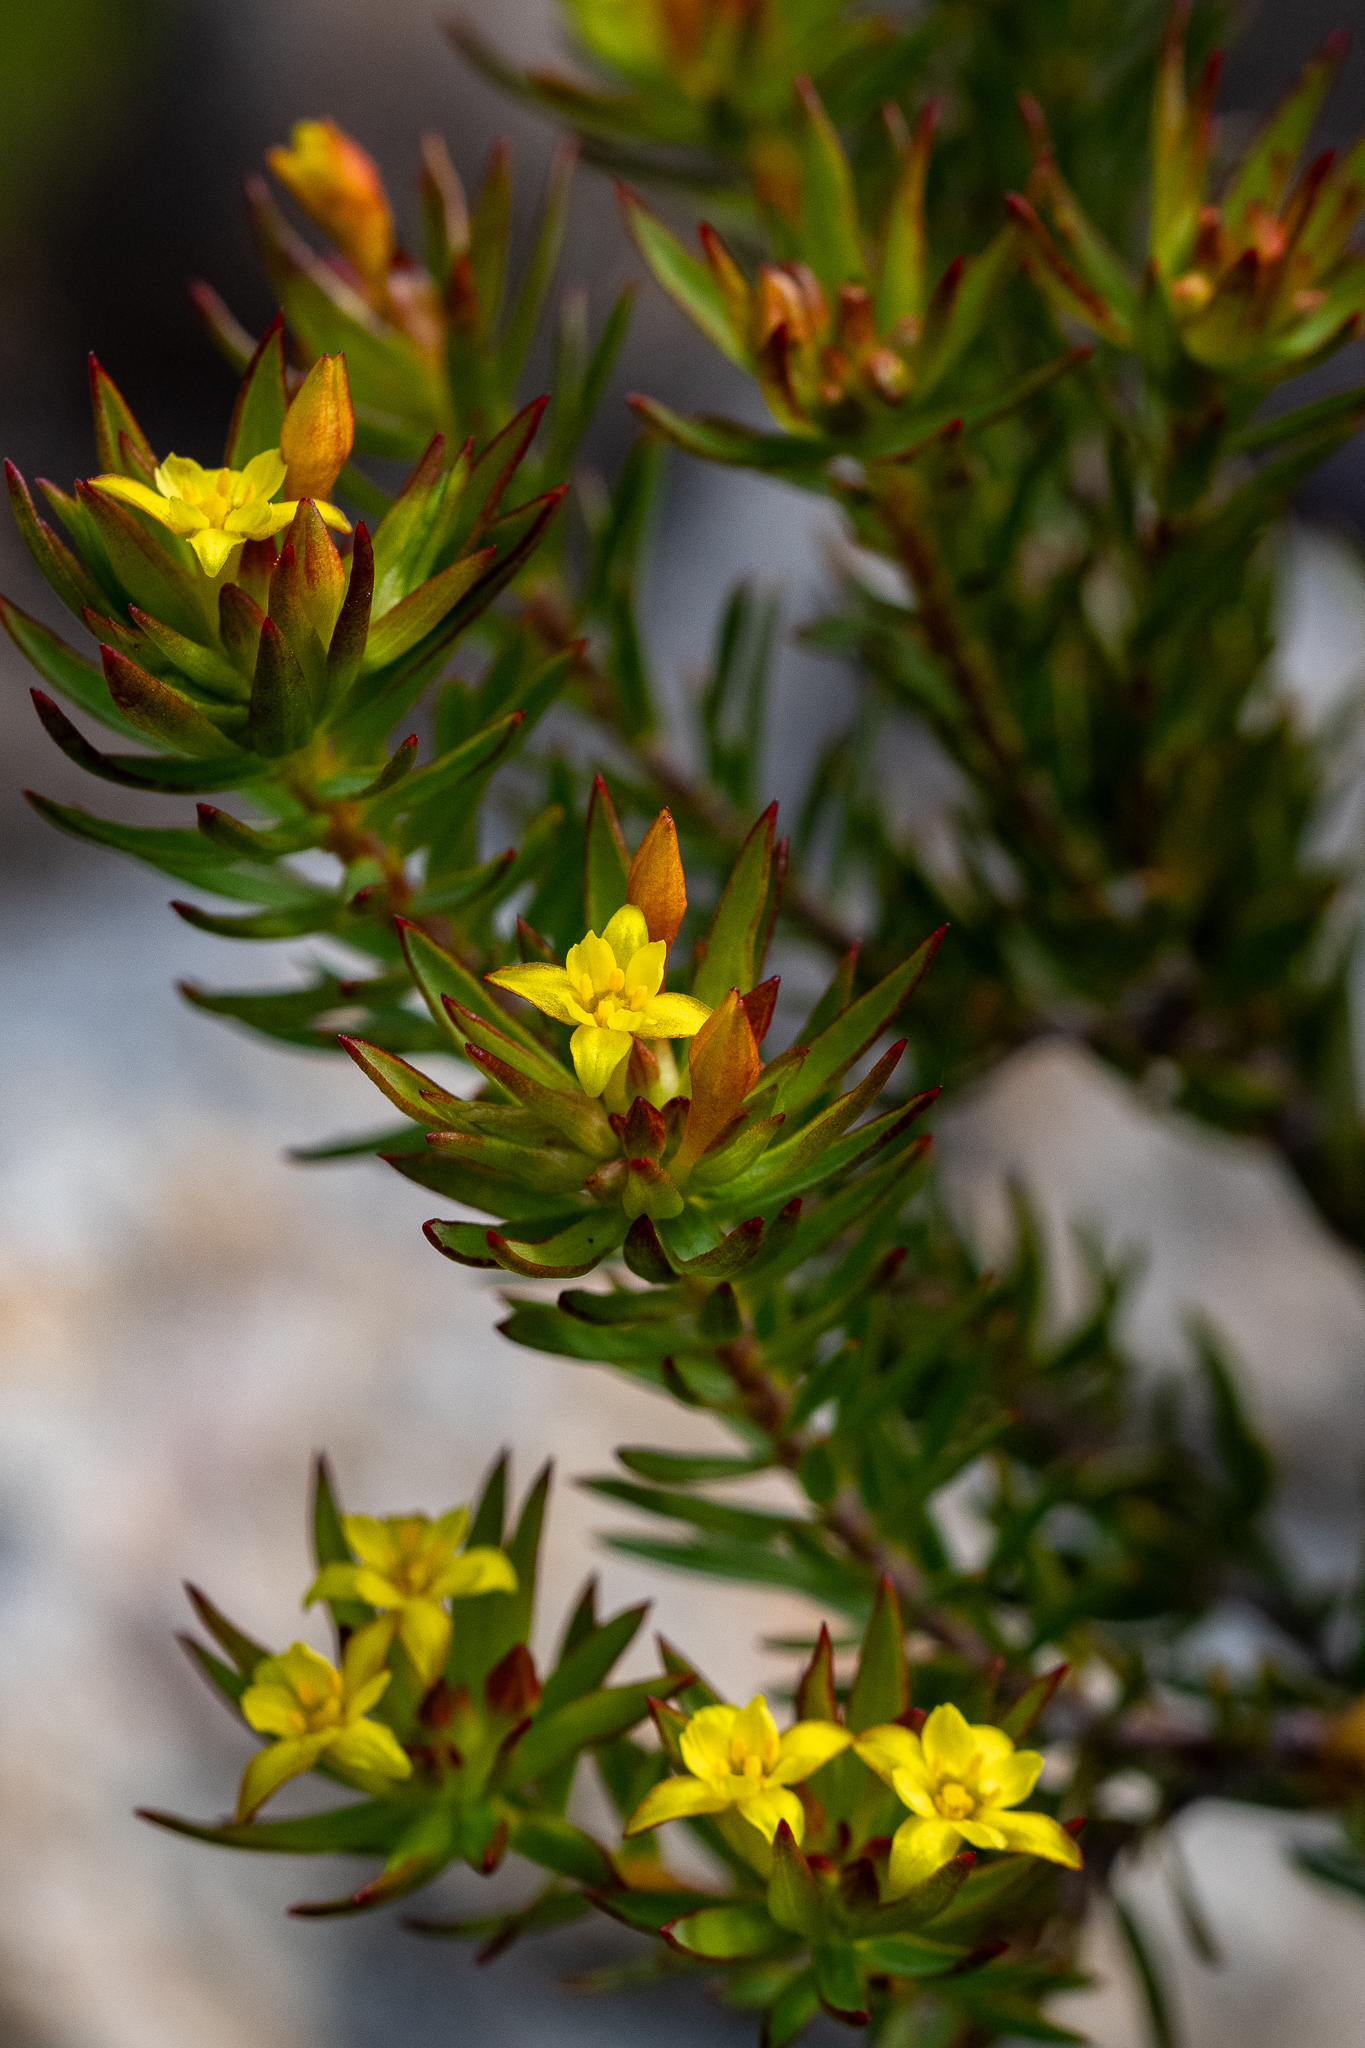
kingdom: Plantae
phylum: Tracheophyta
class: Magnoliopsida
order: Malvales
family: Thymelaeaceae
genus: Gnidia
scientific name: Gnidia juniperifolia
